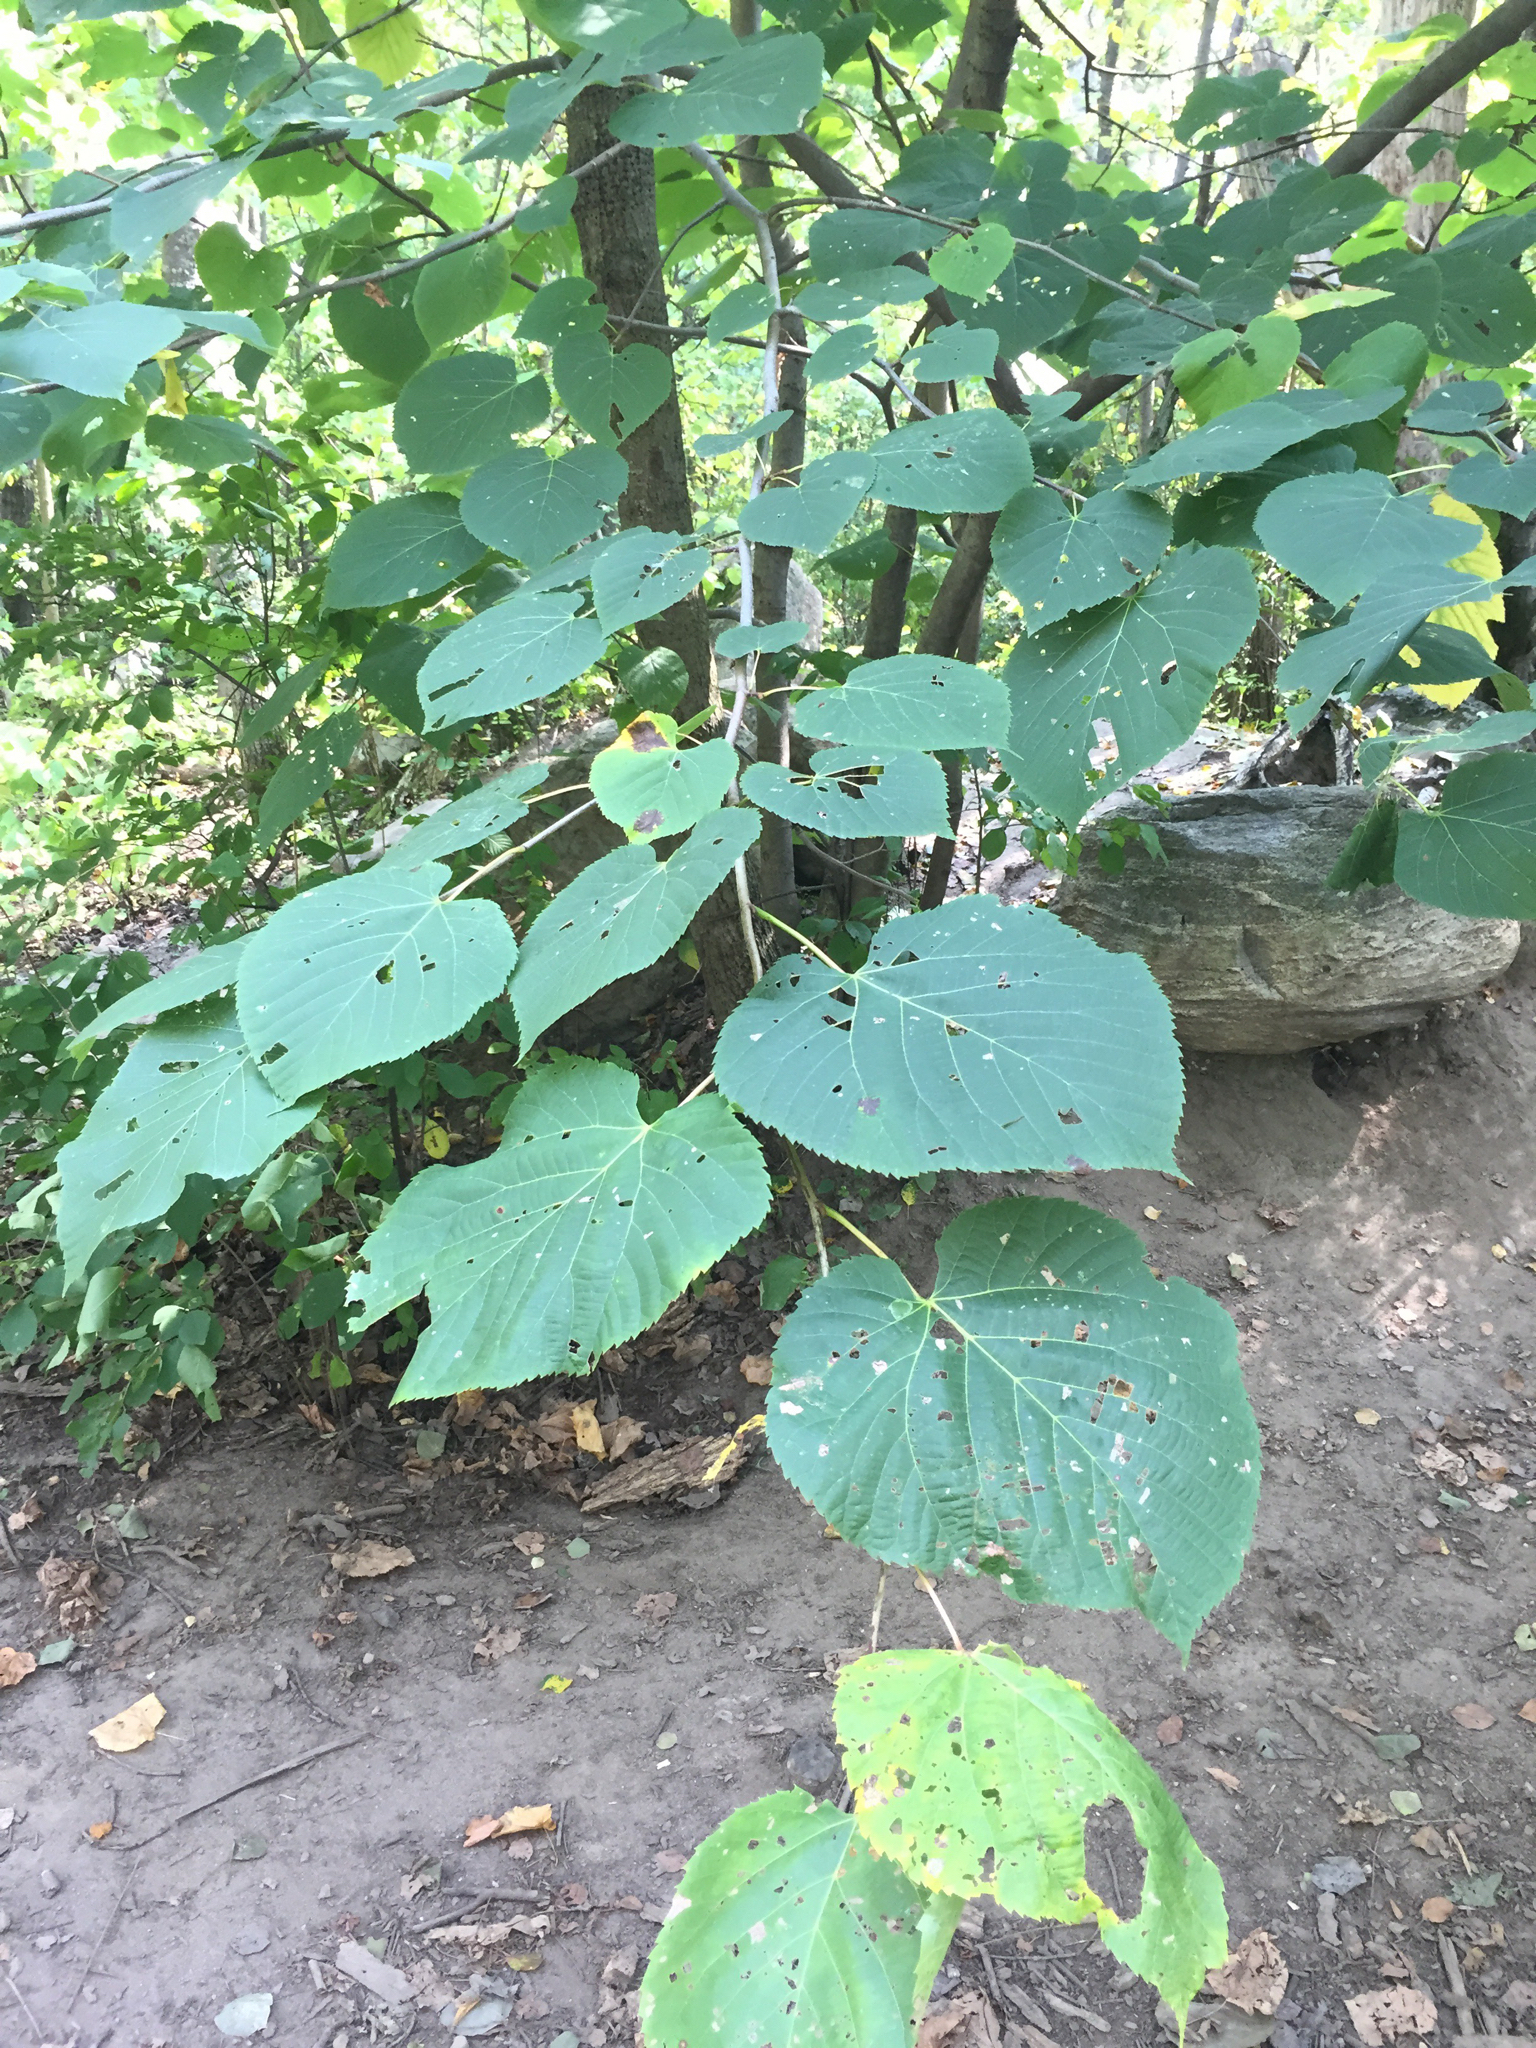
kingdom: Plantae
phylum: Tracheophyta
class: Magnoliopsida
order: Malvales
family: Malvaceae
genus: Tilia
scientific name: Tilia americana
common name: Basswood
